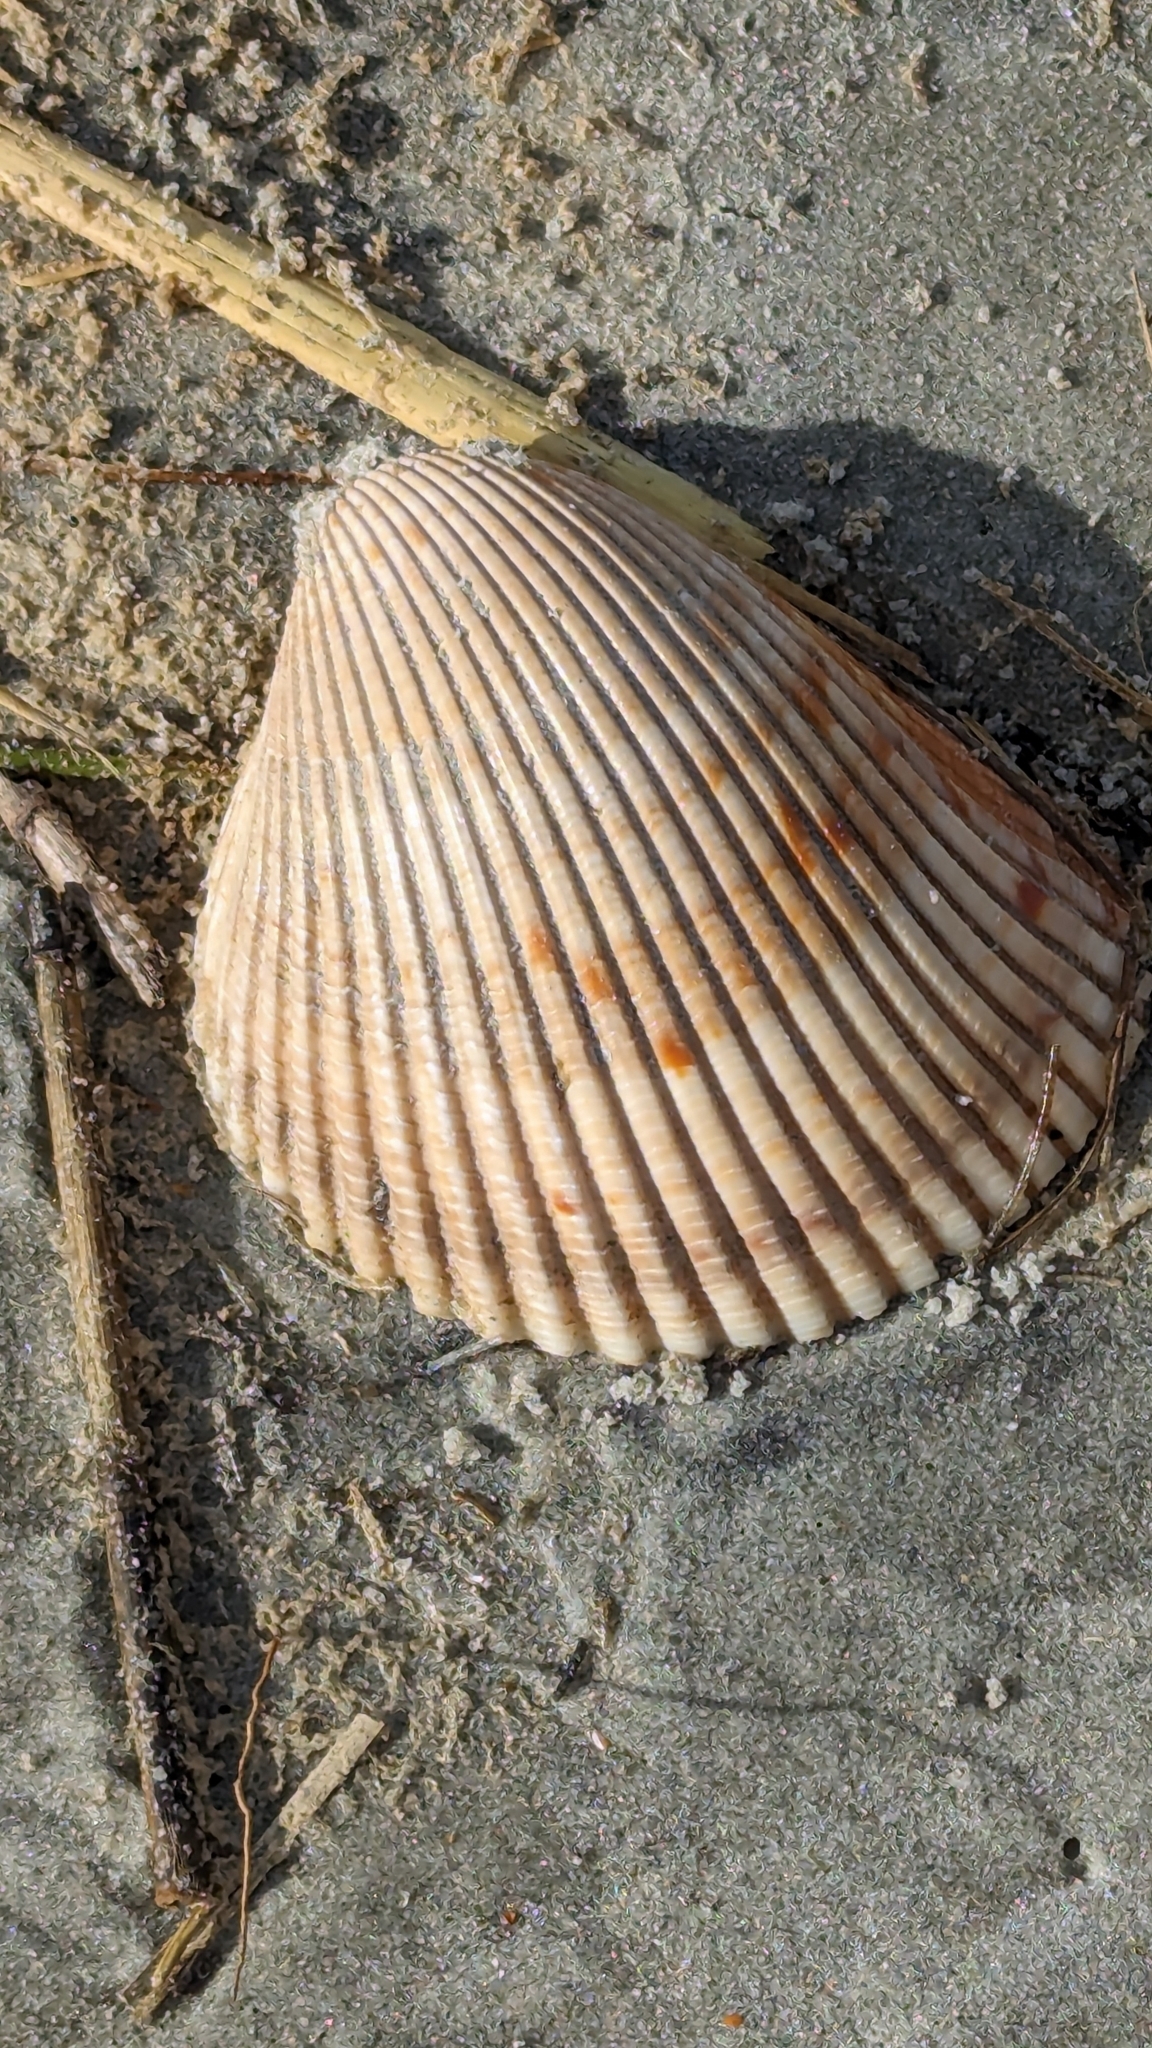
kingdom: Animalia
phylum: Mollusca
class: Bivalvia
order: Cardiida
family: Cardiidae
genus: Dinocardium
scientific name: Dinocardium robustum
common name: Atlantic giant cockle
